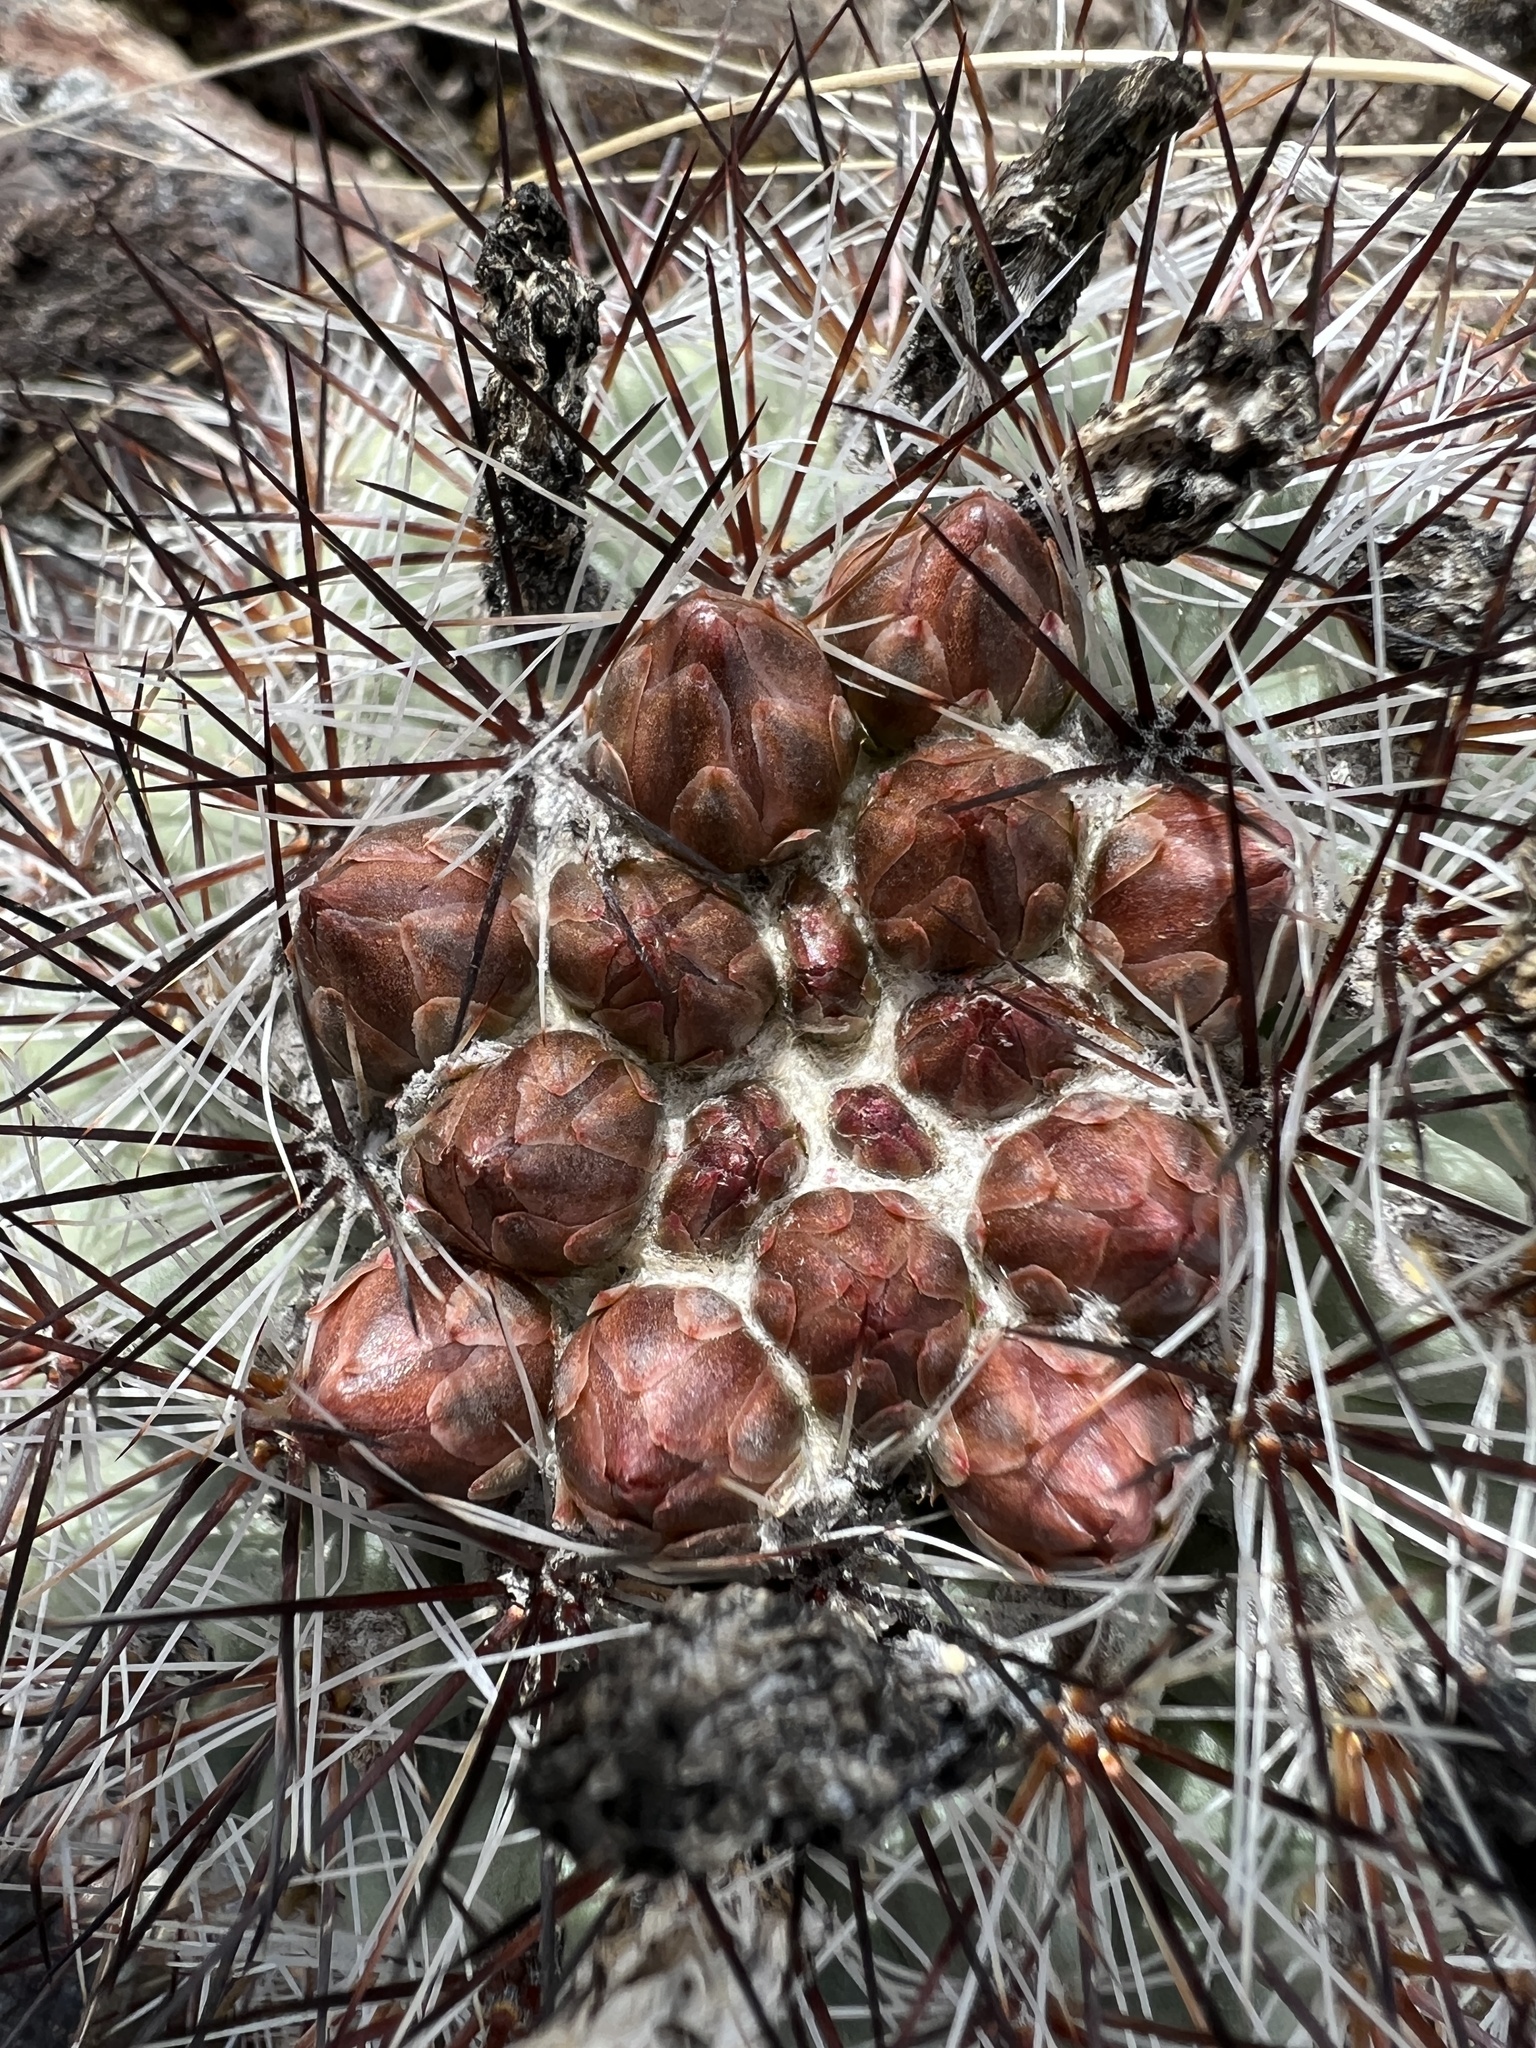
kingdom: Plantae
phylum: Tracheophyta
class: Magnoliopsida
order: Caryophyllales
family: Cactaceae
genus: Pediocactus
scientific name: Pediocactus nigrispinus
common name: Simpson's hedgehog cactus
